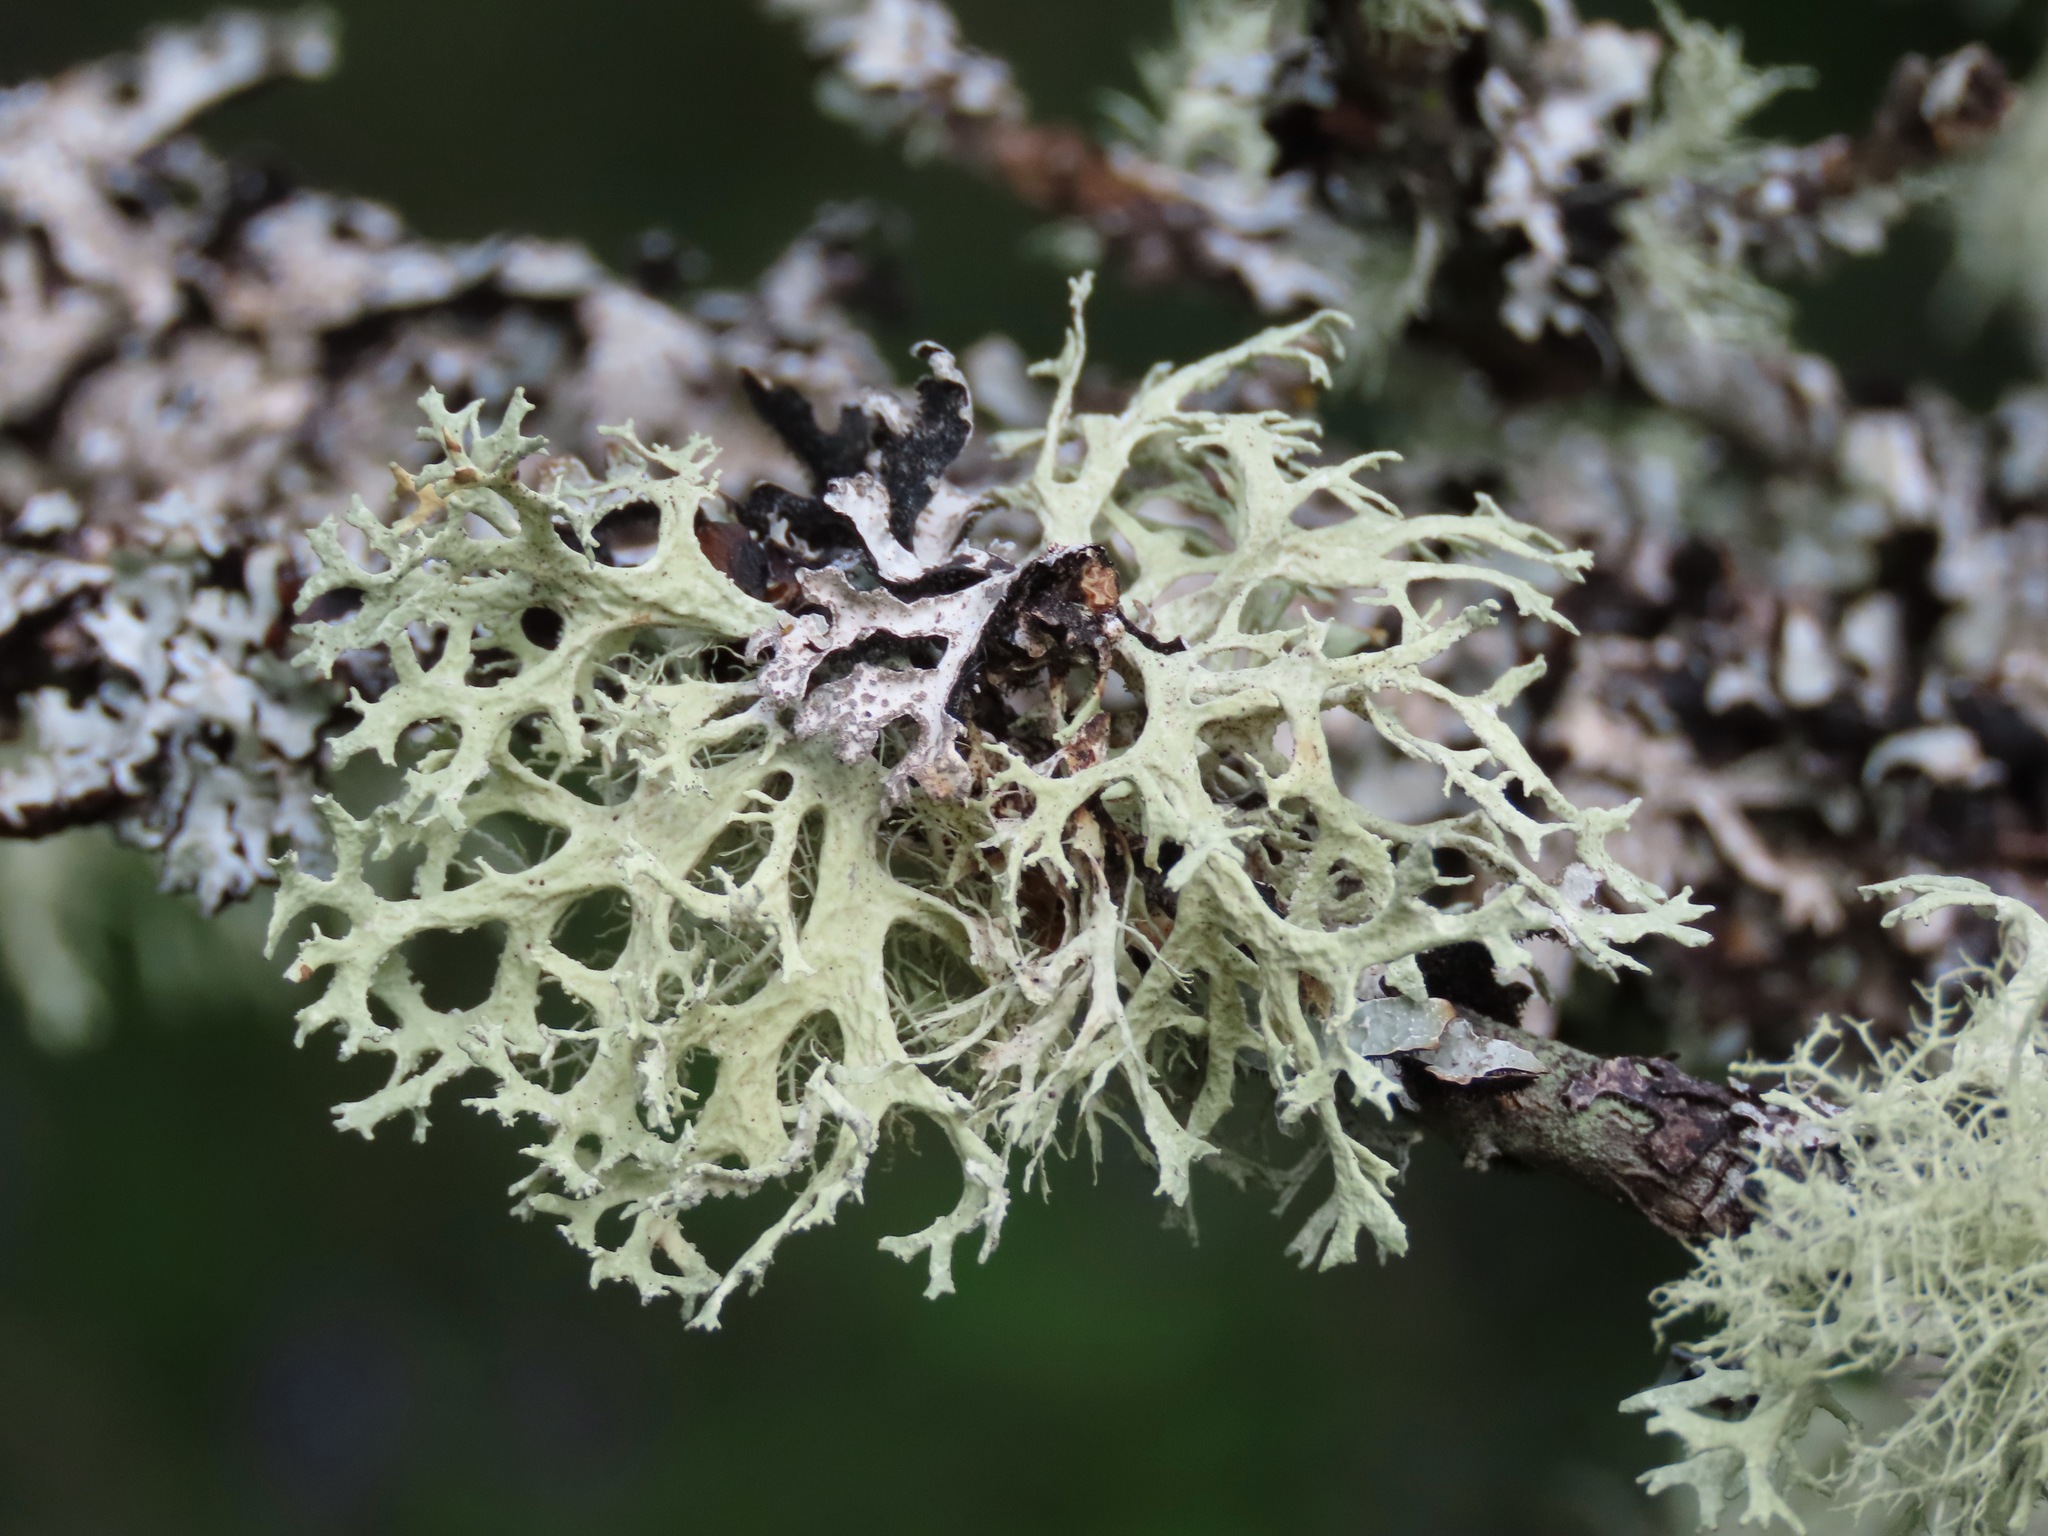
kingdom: Fungi
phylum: Ascomycota
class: Lecanoromycetes
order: Lecanorales
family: Parmeliaceae
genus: Evernia
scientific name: Evernia prunastri
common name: Oak moss
